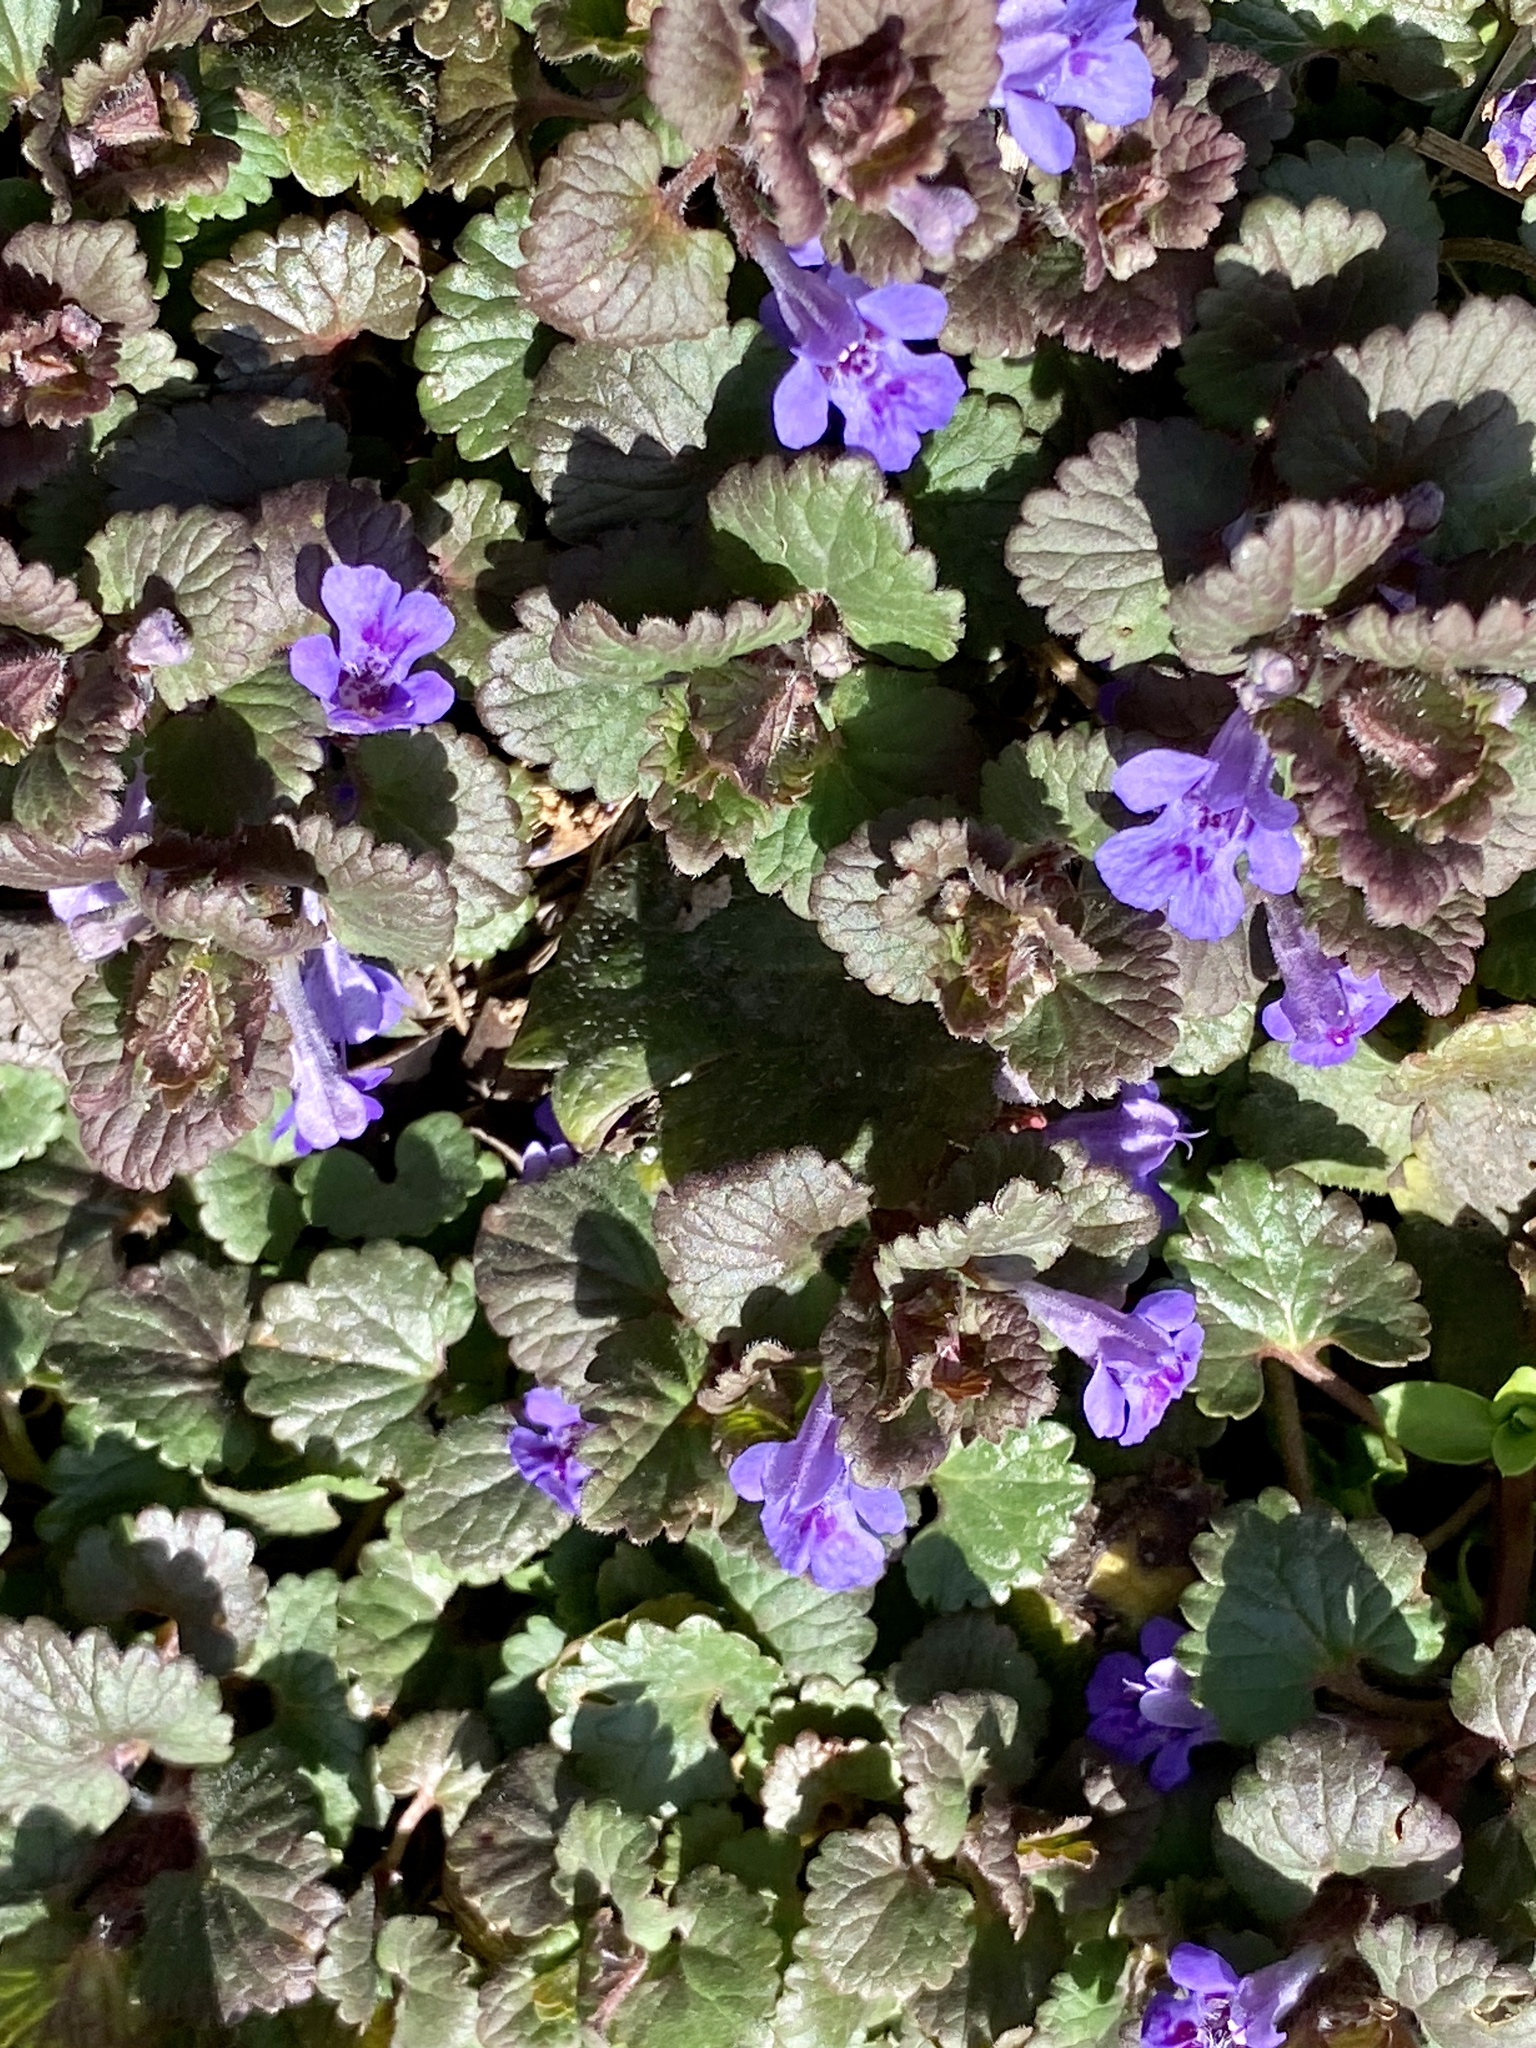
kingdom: Plantae
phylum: Tracheophyta
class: Magnoliopsida
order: Lamiales
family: Lamiaceae
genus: Glechoma
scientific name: Glechoma hederacea
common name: Ground ivy
